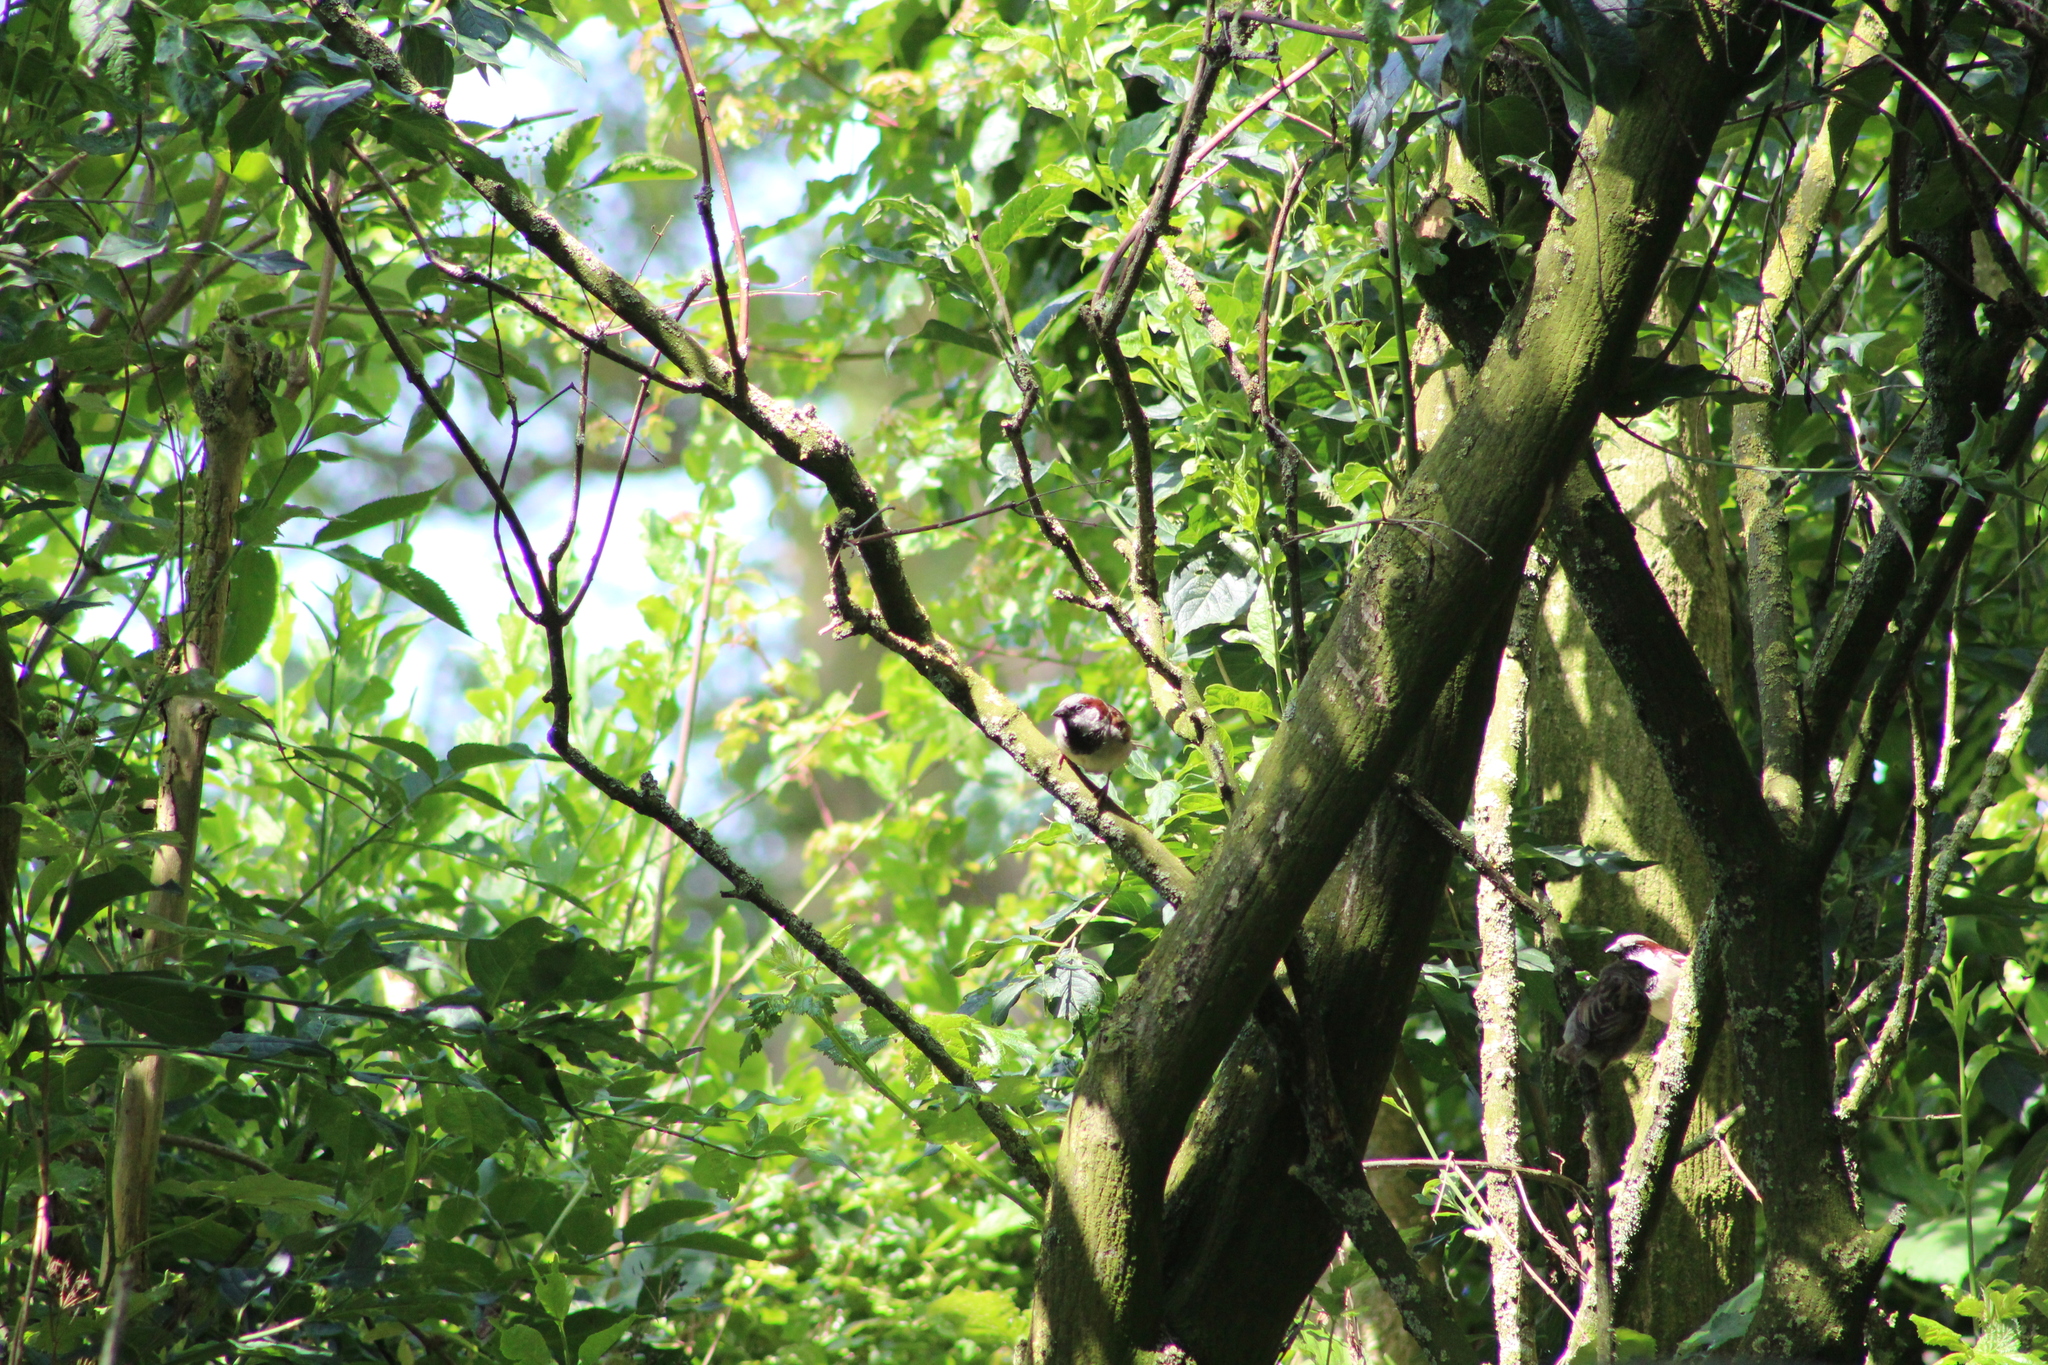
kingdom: Animalia
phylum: Chordata
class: Aves
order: Passeriformes
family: Passeridae
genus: Passer
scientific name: Passer domesticus
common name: House sparrow
